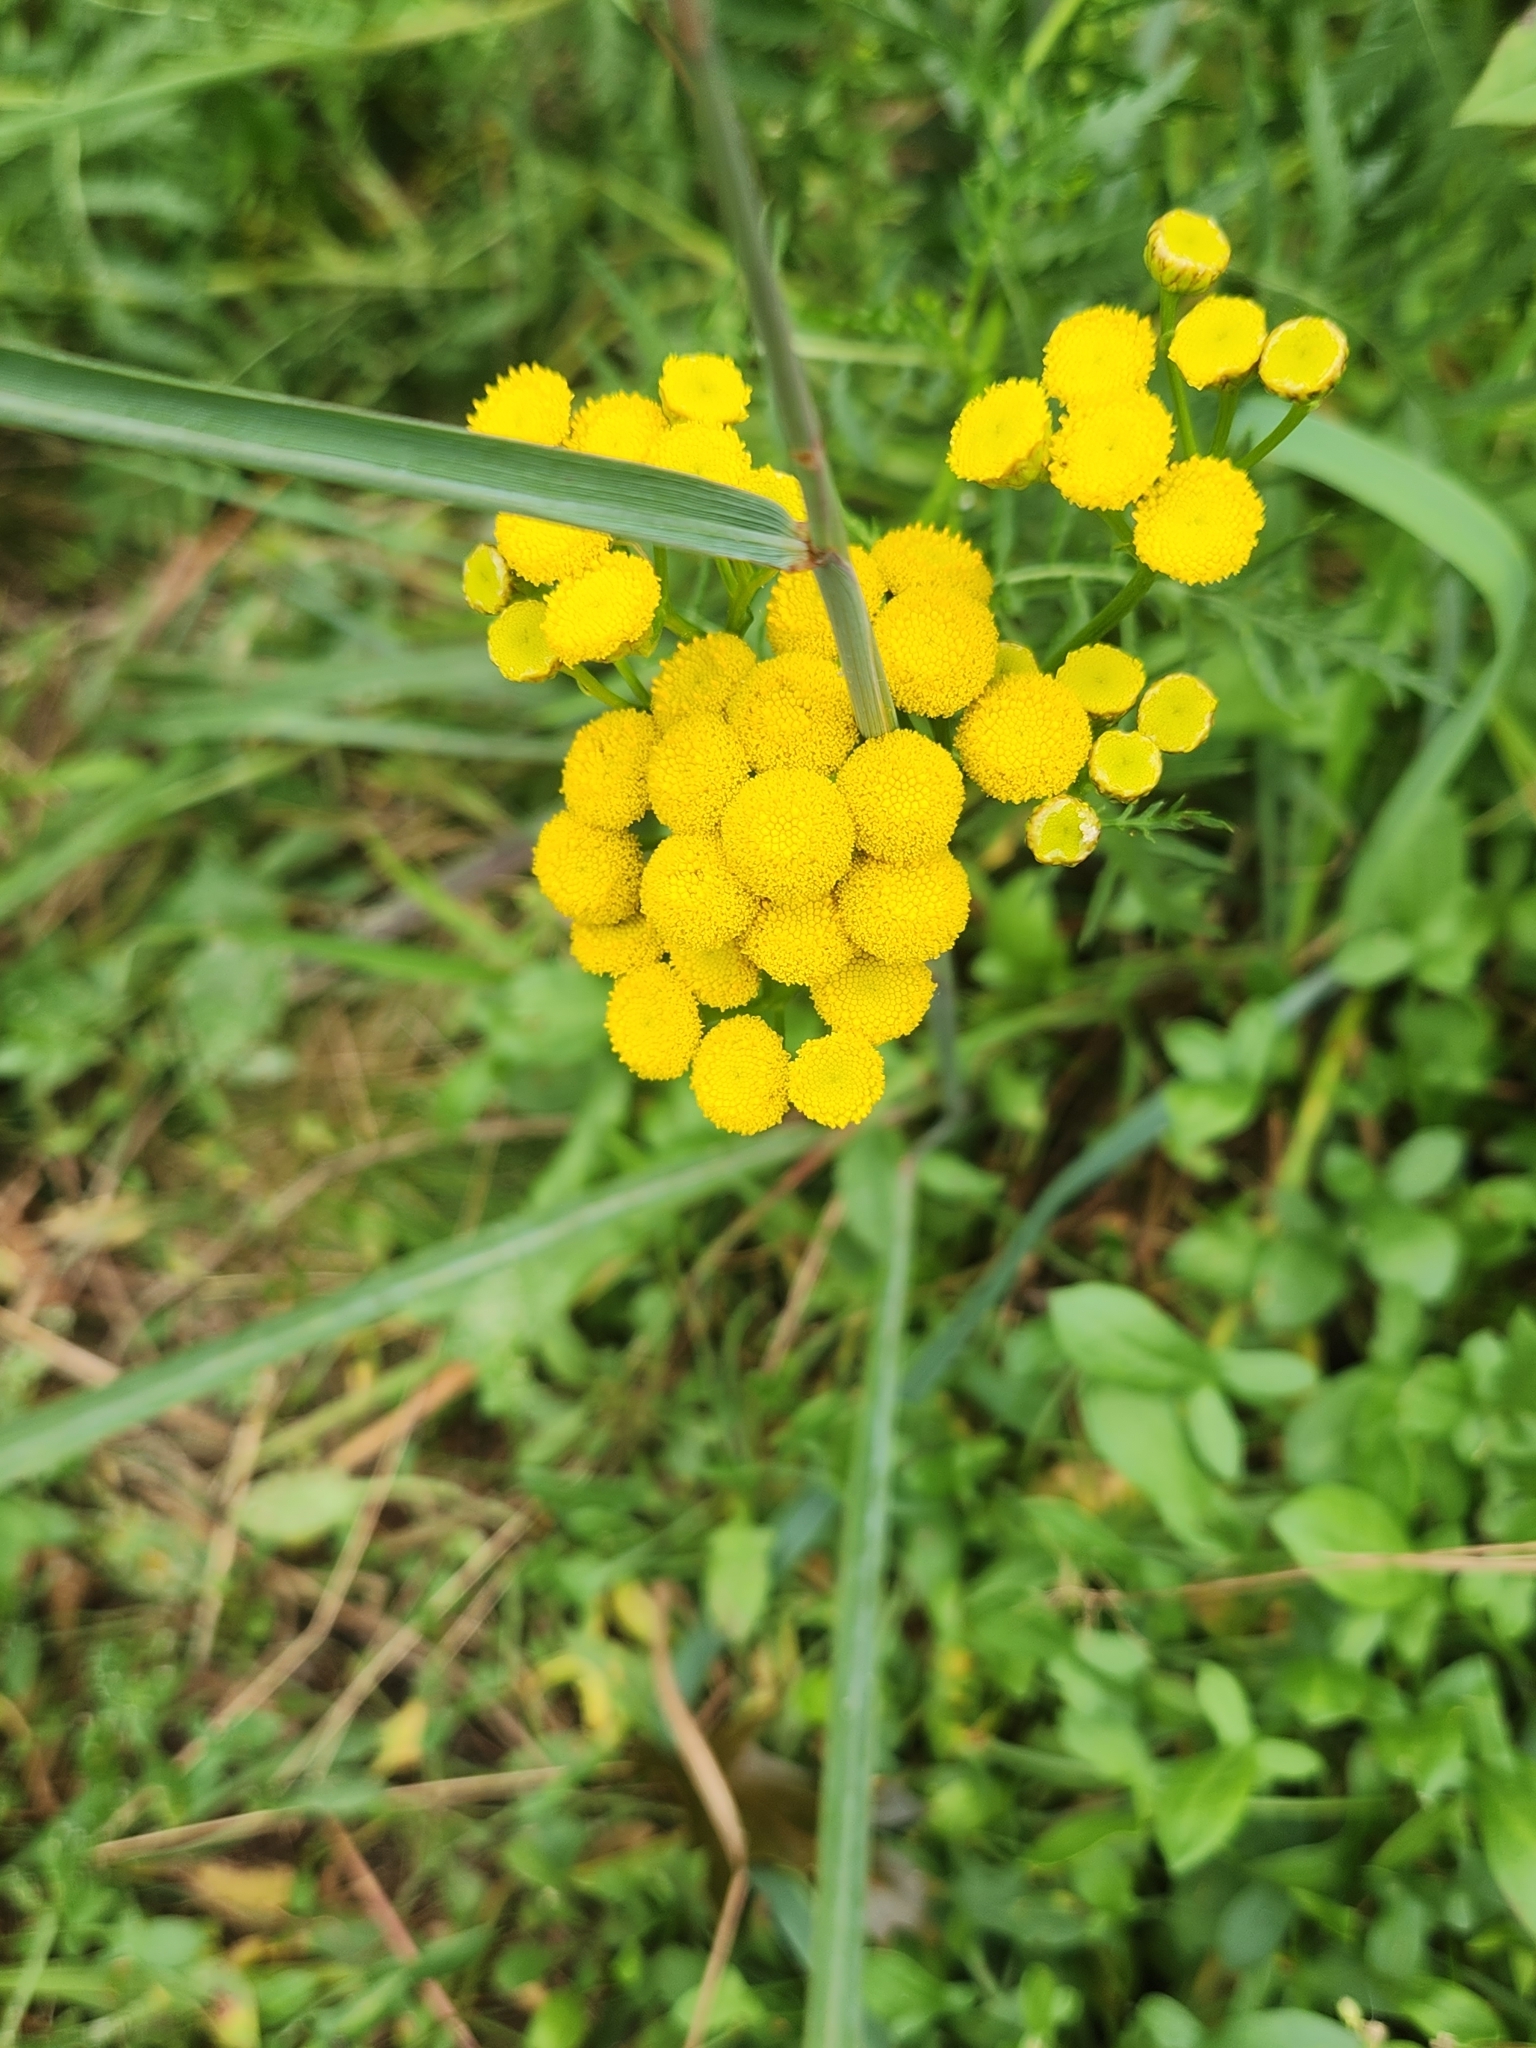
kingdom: Plantae
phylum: Tracheophyta
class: Magnoliopsida
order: Asterales
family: Asteraceae
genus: Tanacetum
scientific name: Tanacetum vulgare
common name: Common tansy
